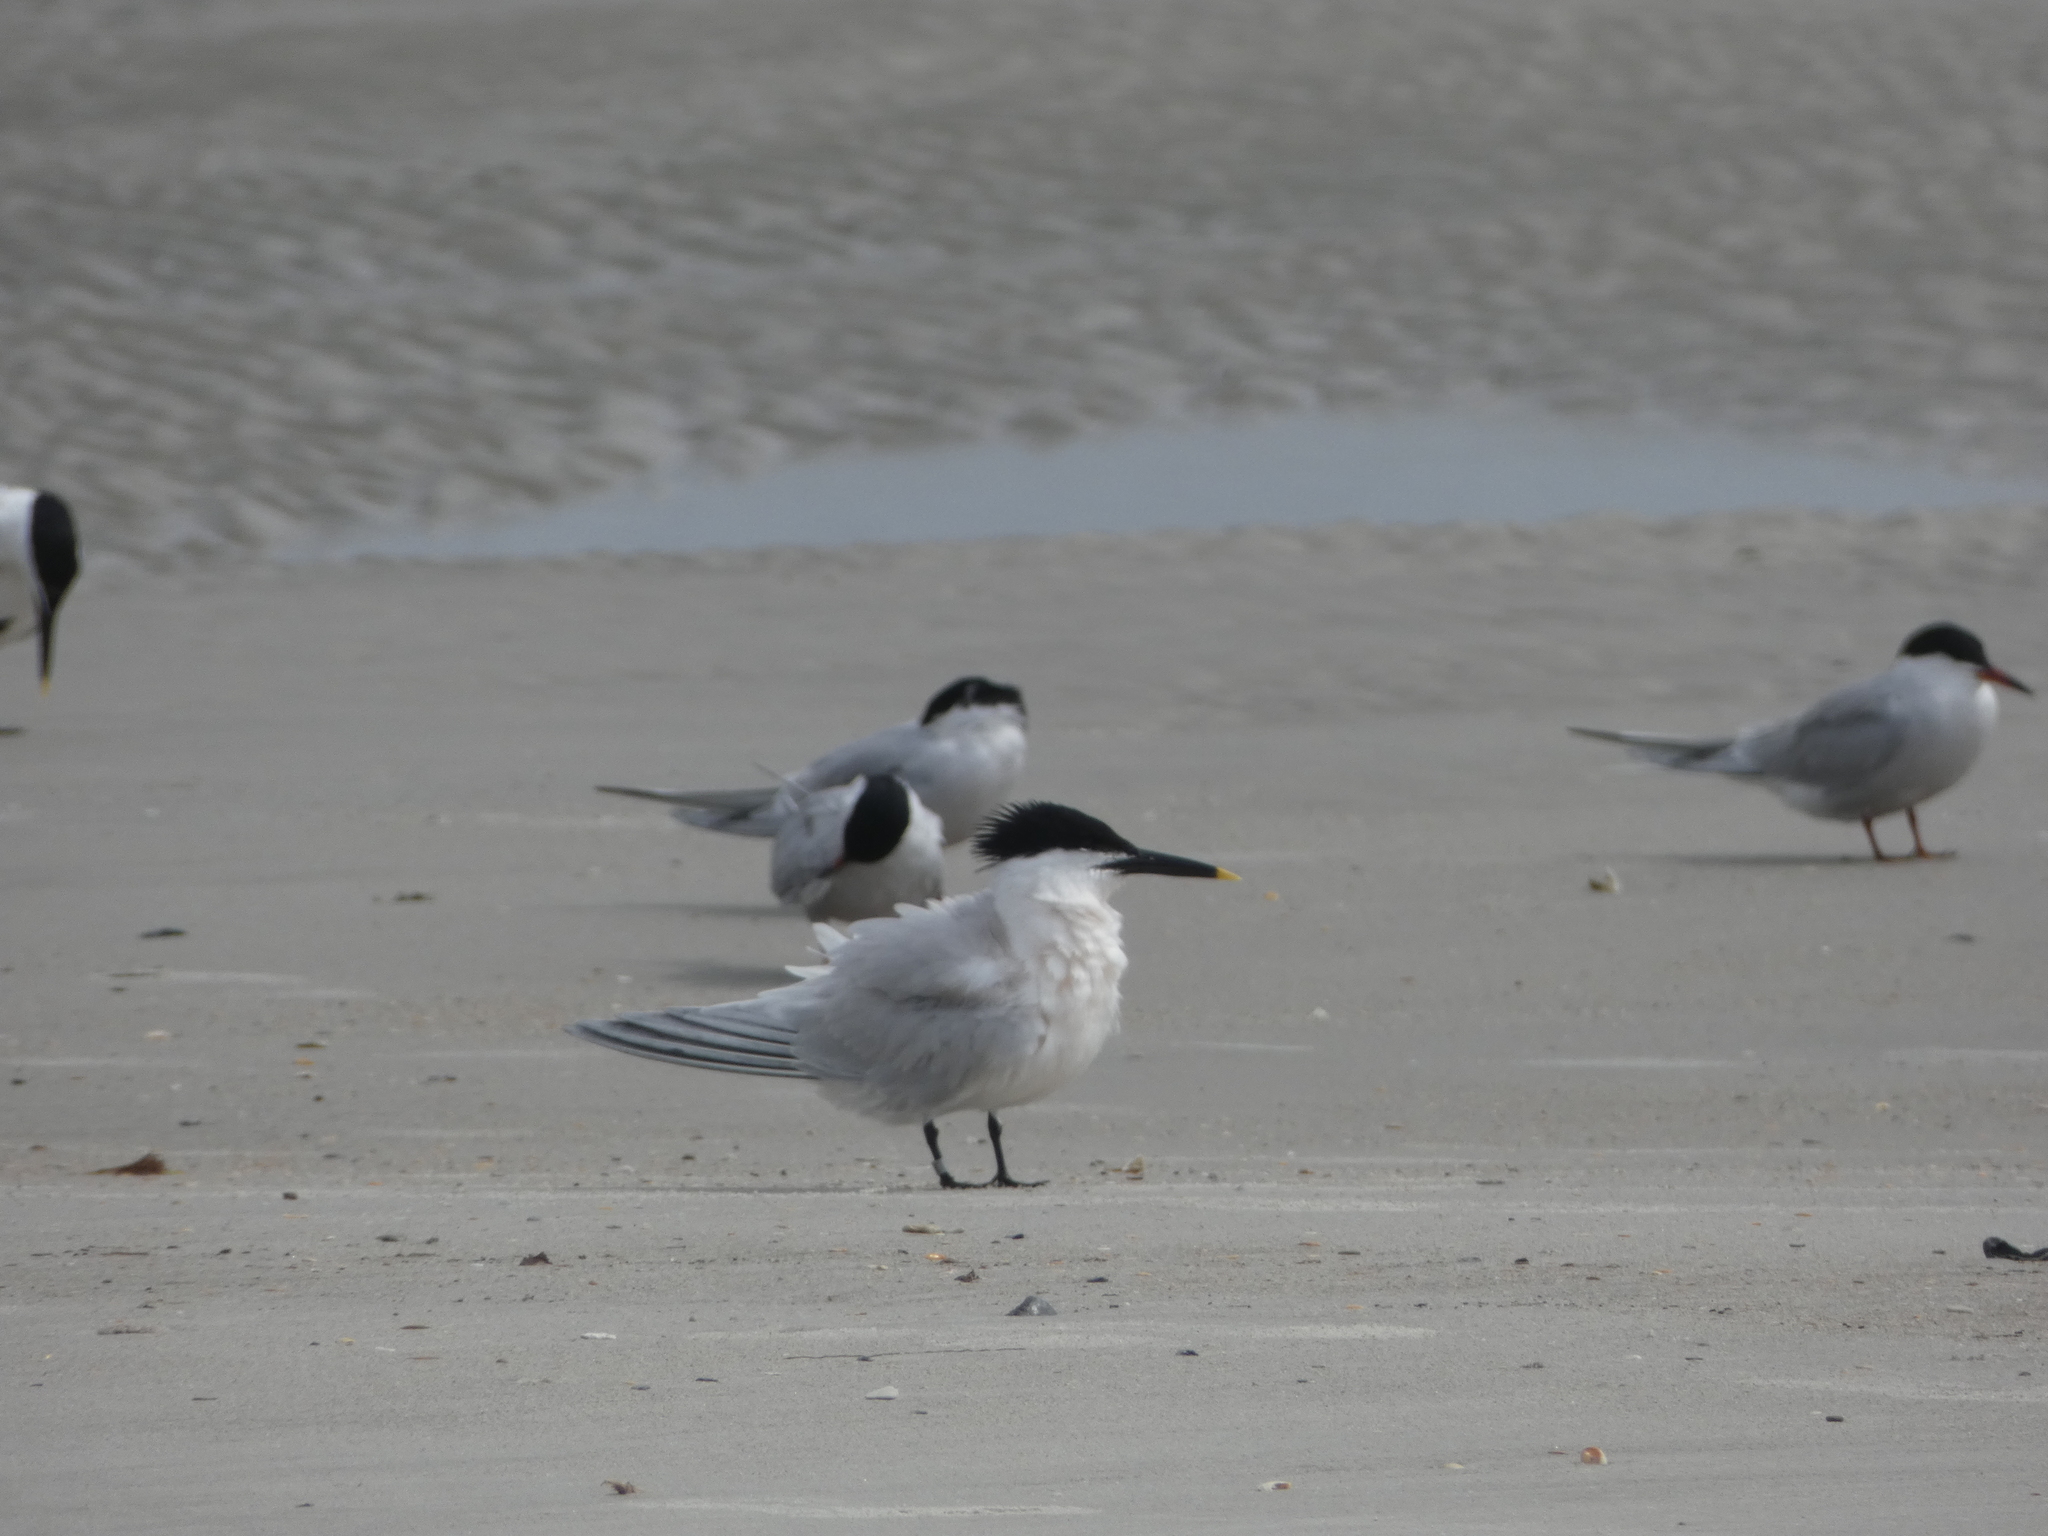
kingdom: Animalia
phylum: Chordata
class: Aves
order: Charadriiformes
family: Laridae
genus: Thalasseus
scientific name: Thalasseus sandvicensis
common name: Sandwich tern
